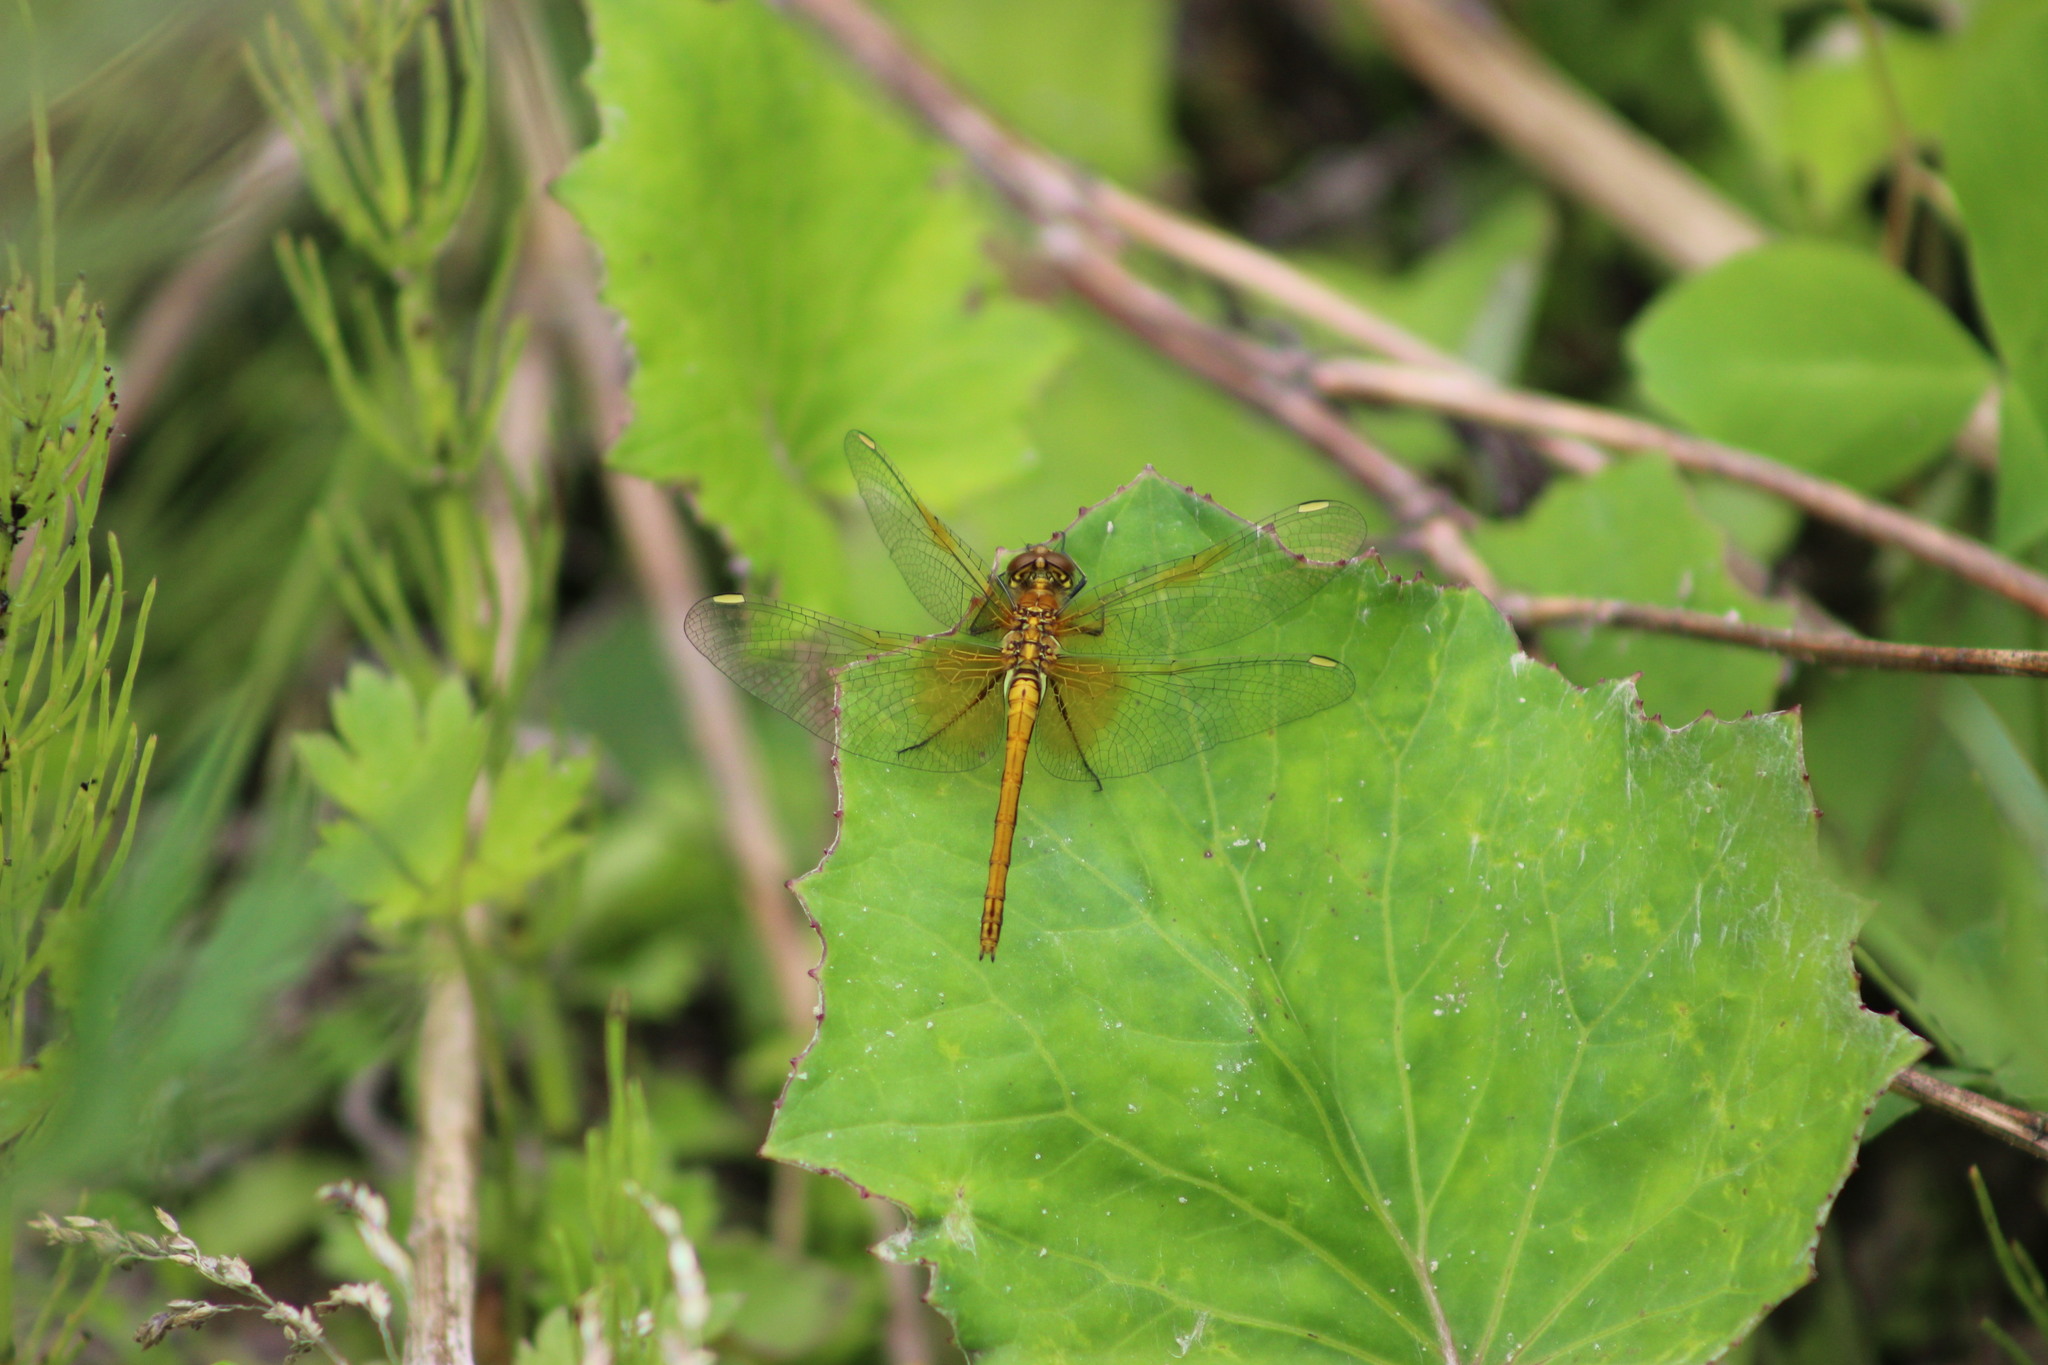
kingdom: Animalia
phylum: Arthropoda
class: Insecta
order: Odonata
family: Libellulidae
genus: Sympetrum
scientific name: Sympetrum flaveolum
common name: Yellow-winged darter
